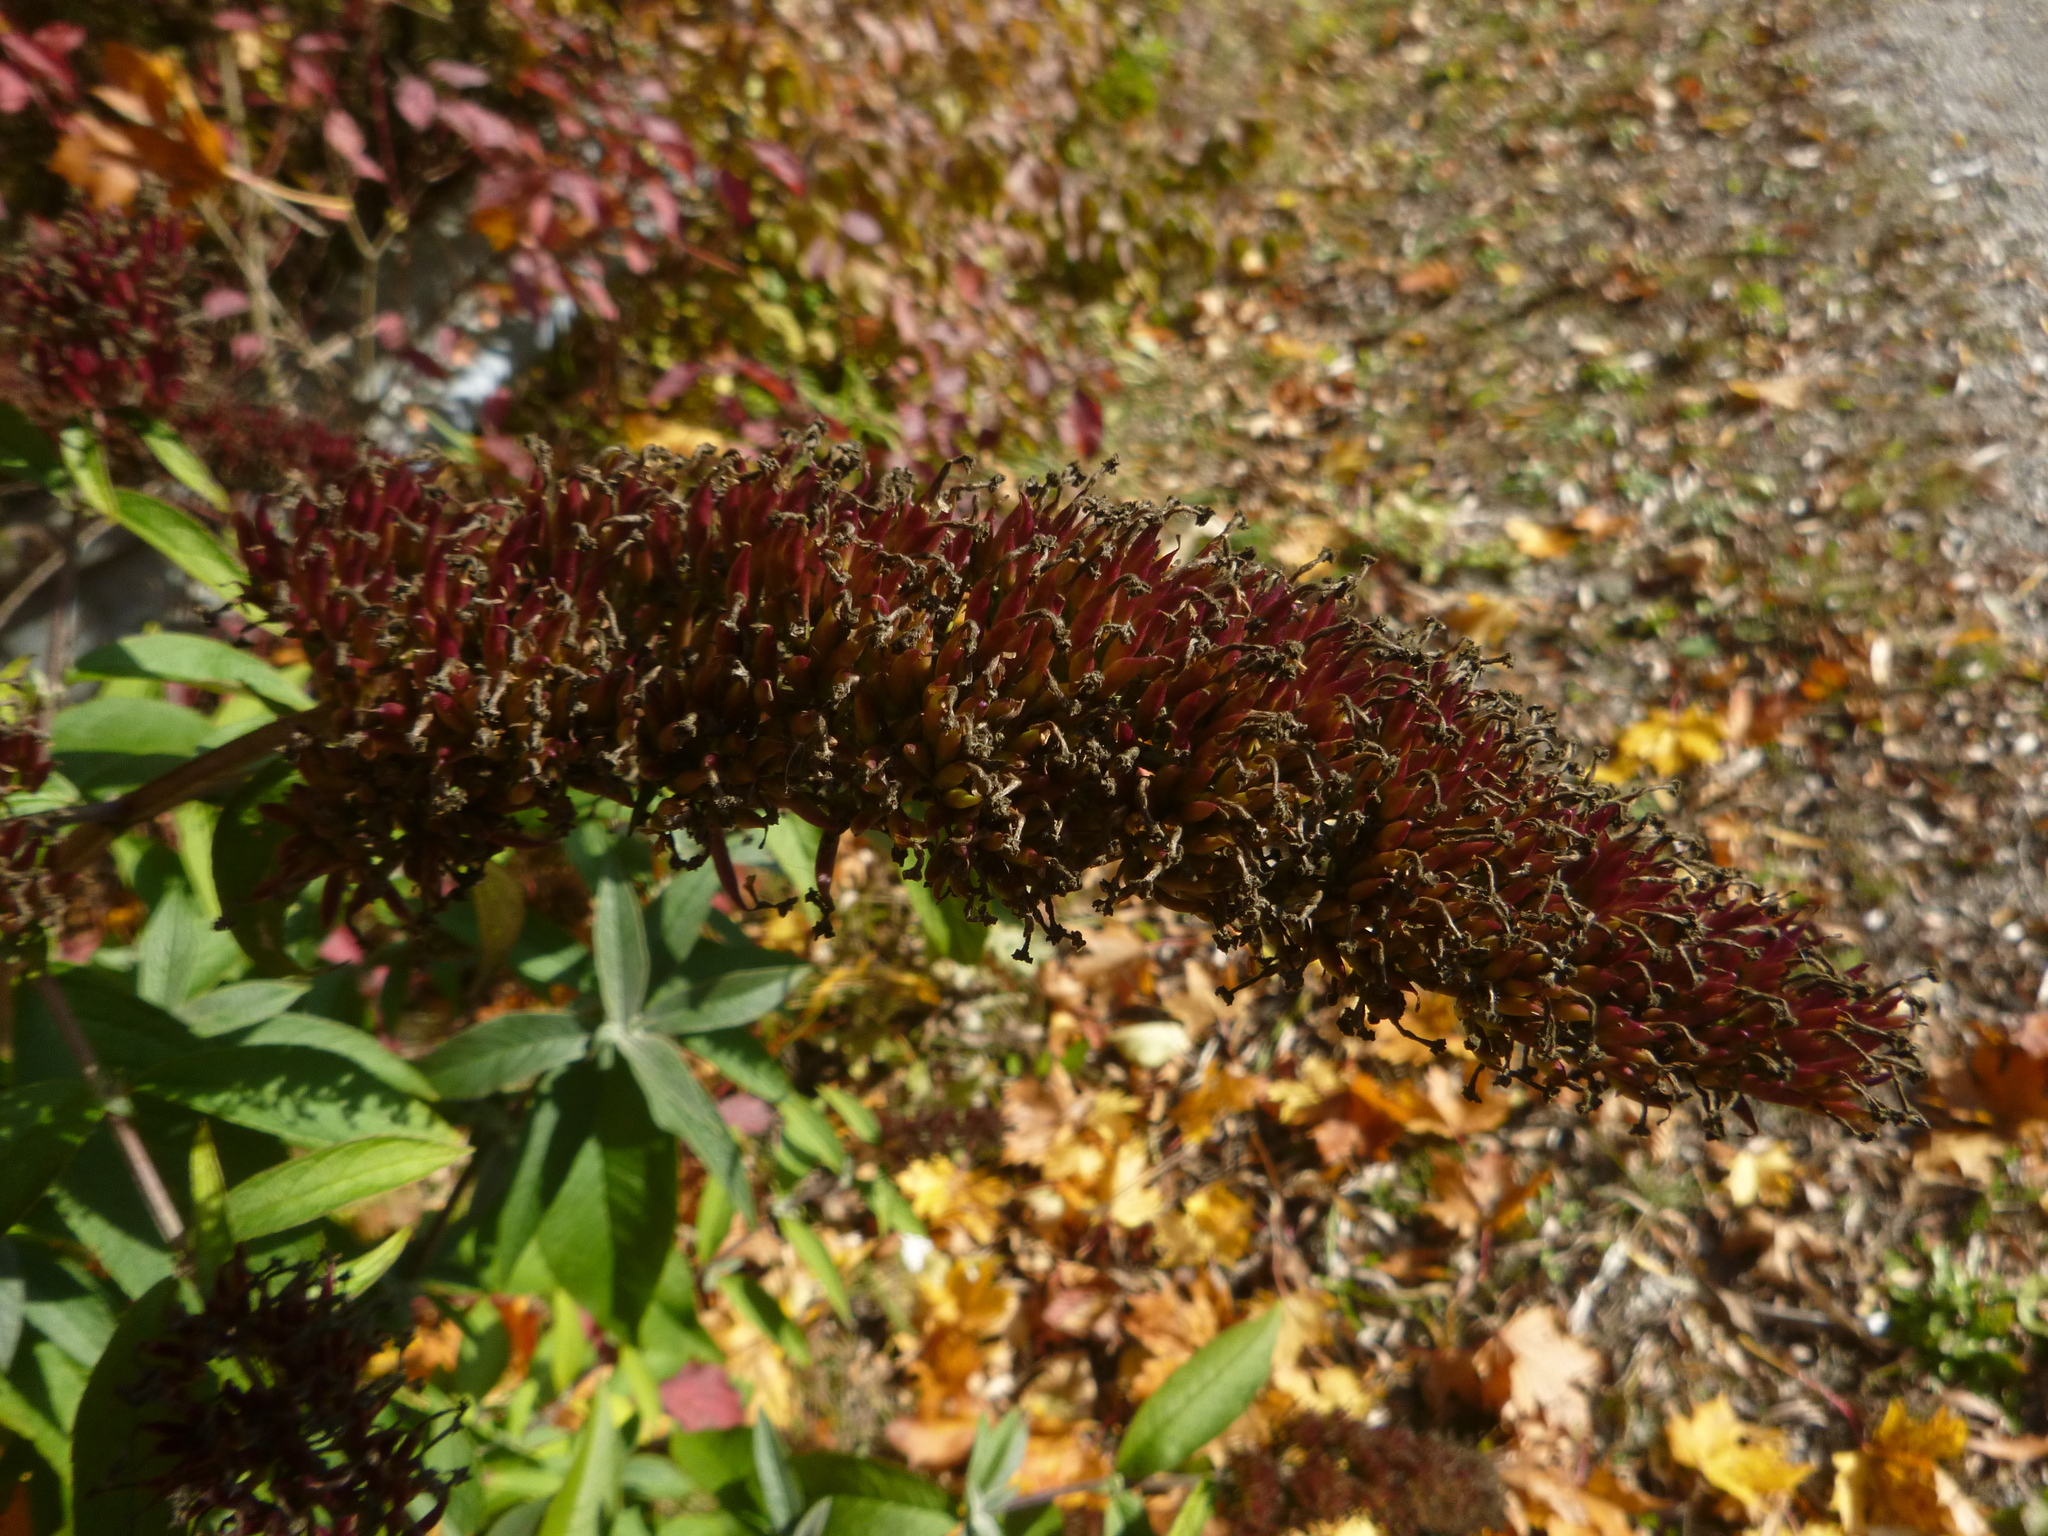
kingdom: Plantae
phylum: Tracheophyta
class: Magnoliopsida
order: Lamiales
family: Scrophulariaceae
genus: Buddleja
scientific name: Buddleja davidii
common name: Butterfly-bush
